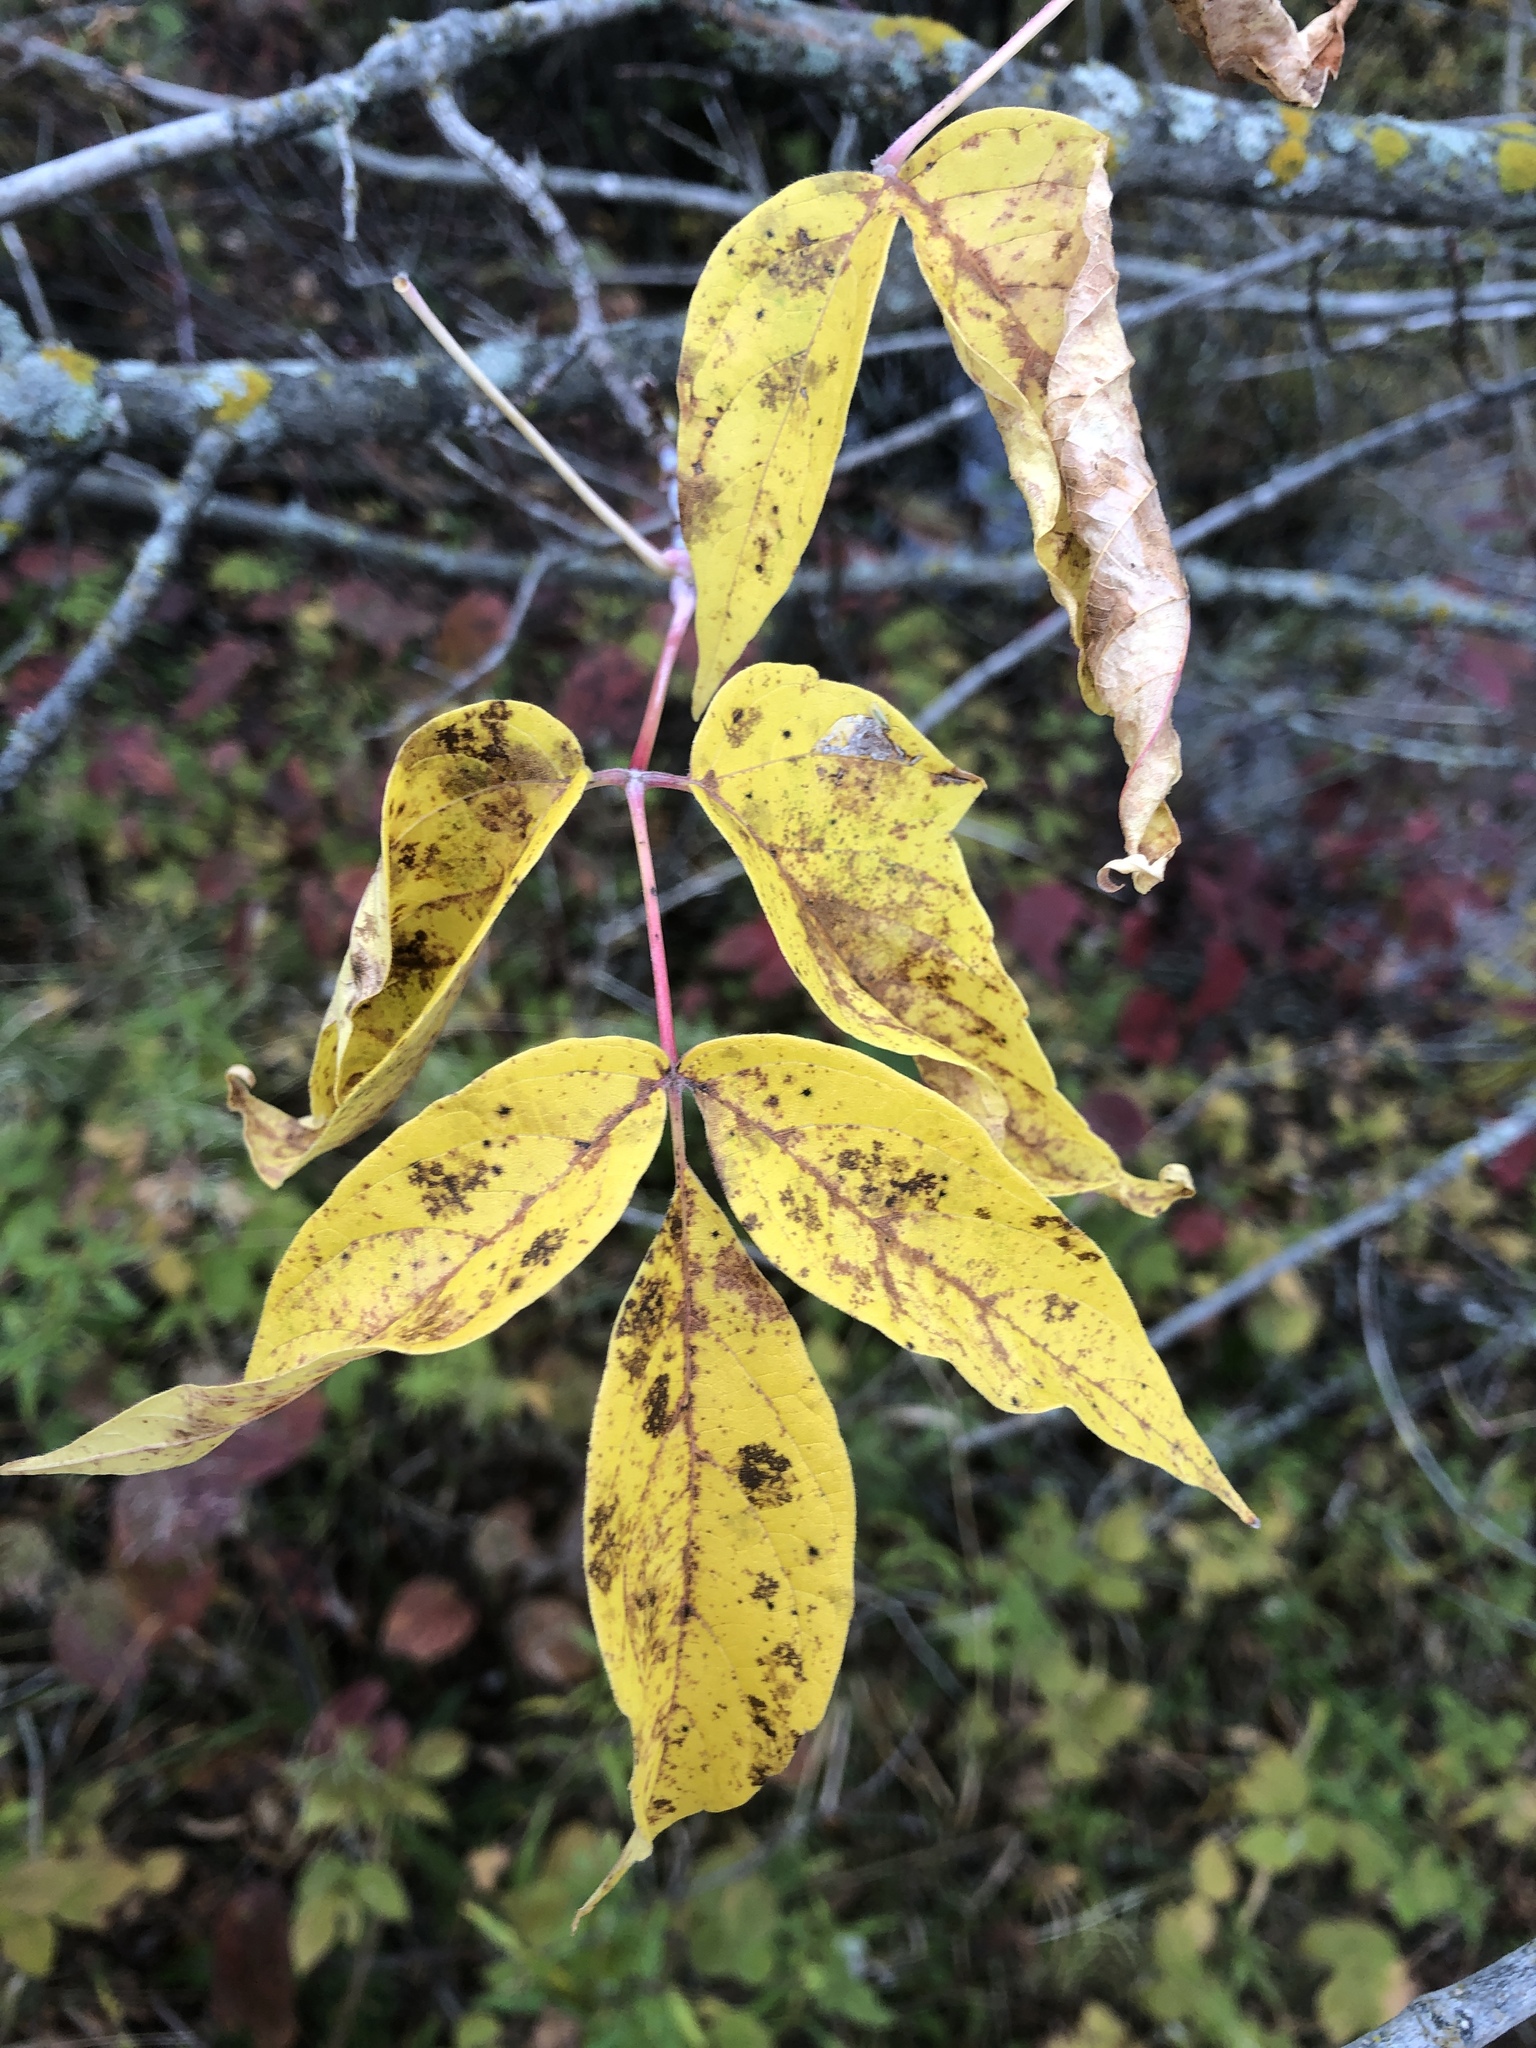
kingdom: Plantae
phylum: Tracheophyta
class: Magnoliopsida
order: Sapindales
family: Sapindaceae
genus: Acer
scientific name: Acer negundo
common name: Ashleaf maple
